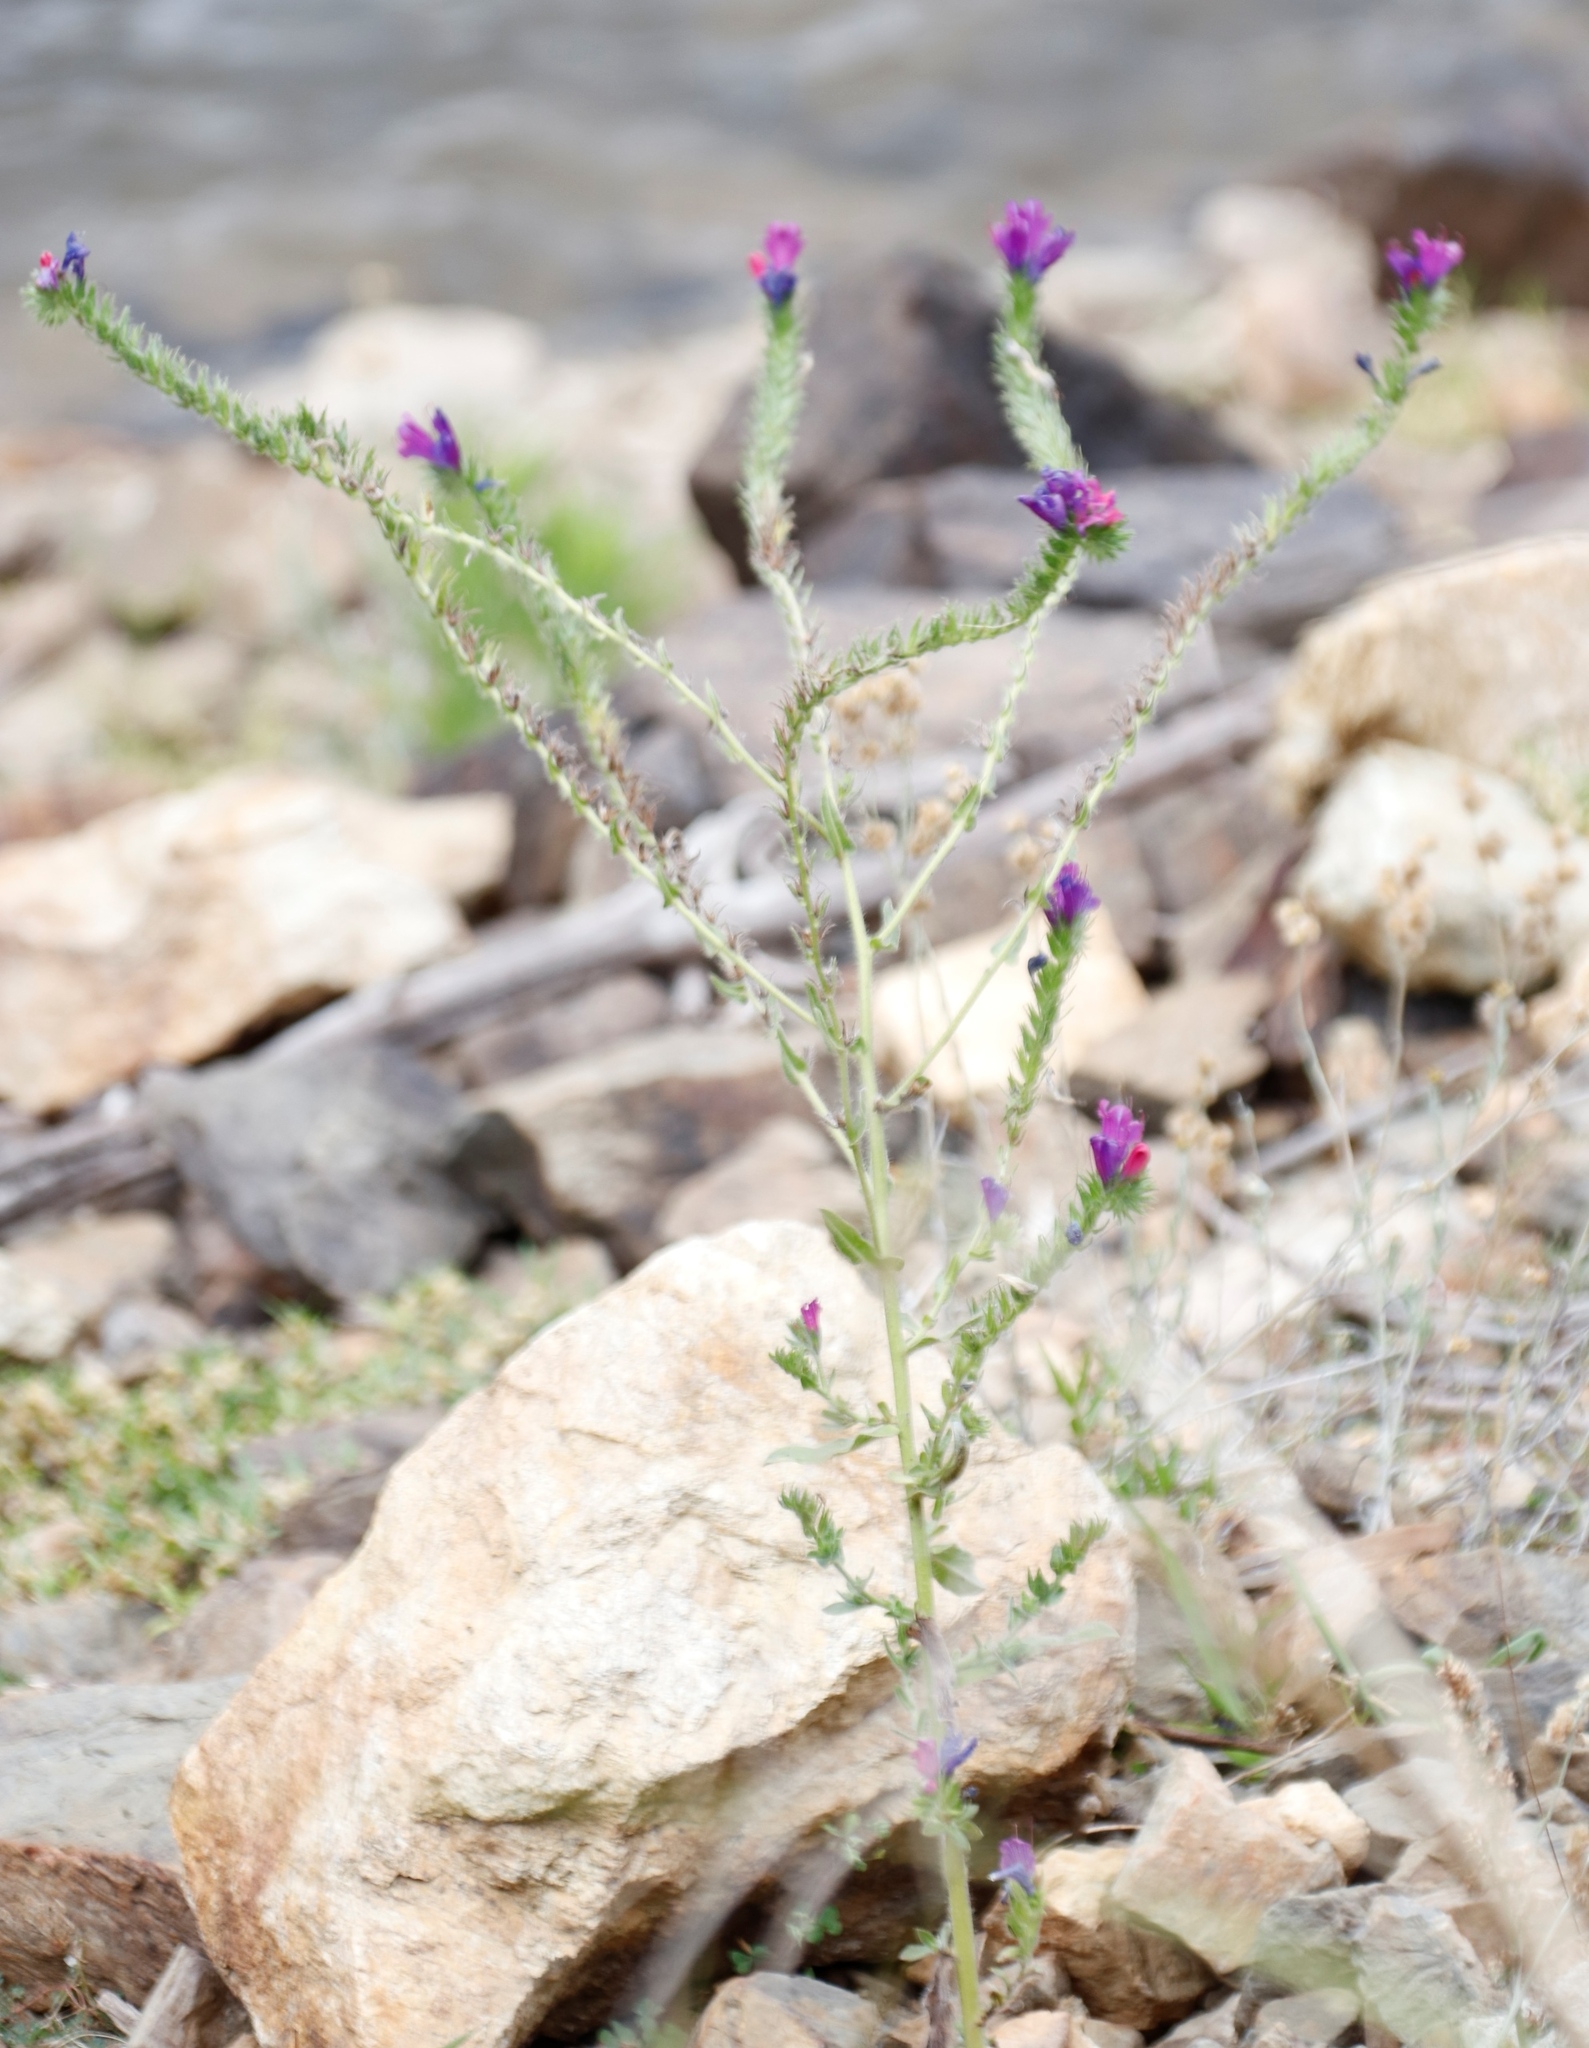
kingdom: Plantae
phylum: Tracheophyta
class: Magnoliopsida
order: Boraginales
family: Boraginaceae
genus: Echium
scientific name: Echium plantagineum
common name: Purple viper's-bugloss
